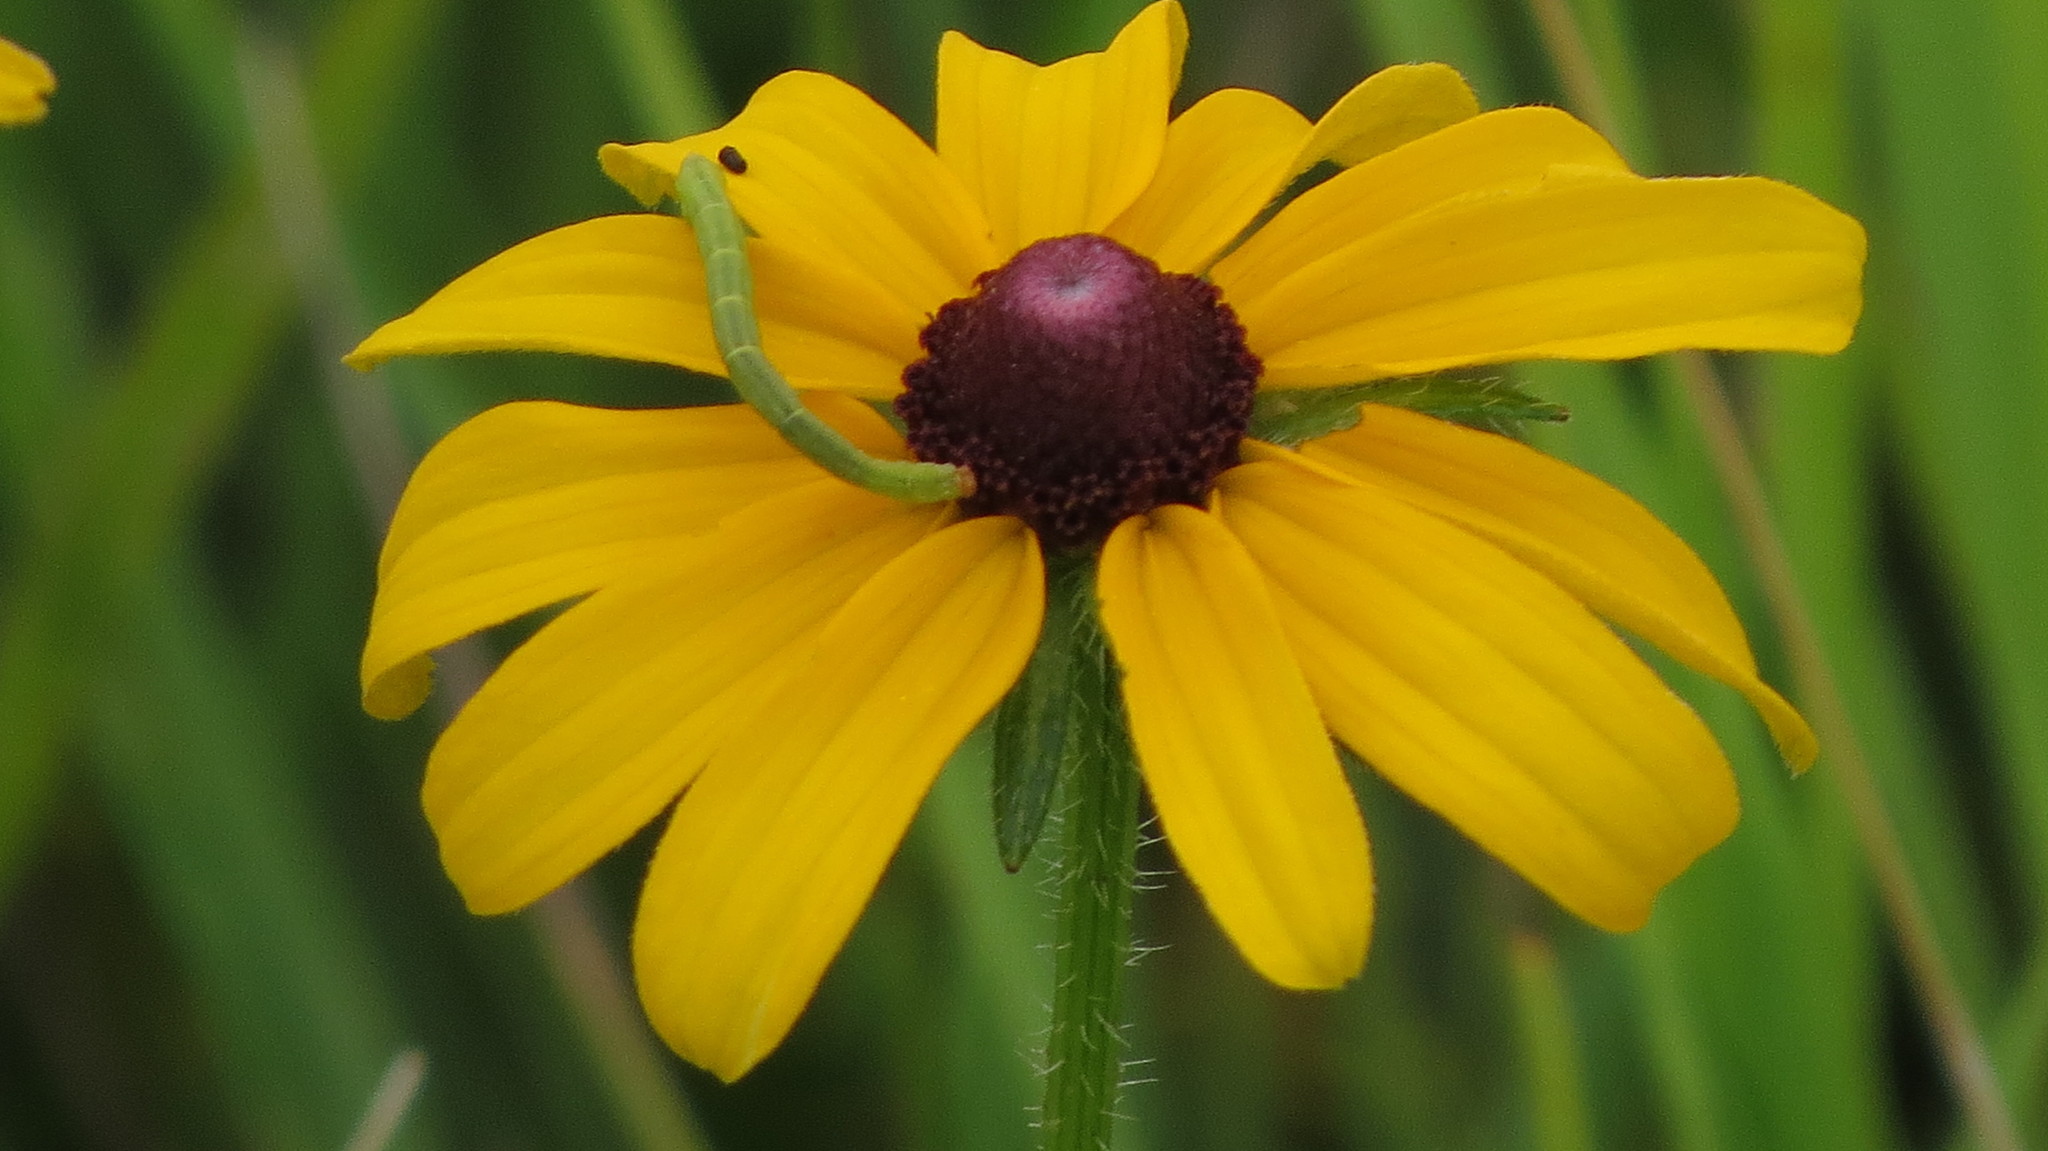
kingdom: Plantae
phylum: Tracheophyta
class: Magnoliopsida
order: Asterales
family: Asteraceae
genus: Rudbeckia
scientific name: Rudbeckia hirta
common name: Black-eyed-susan
